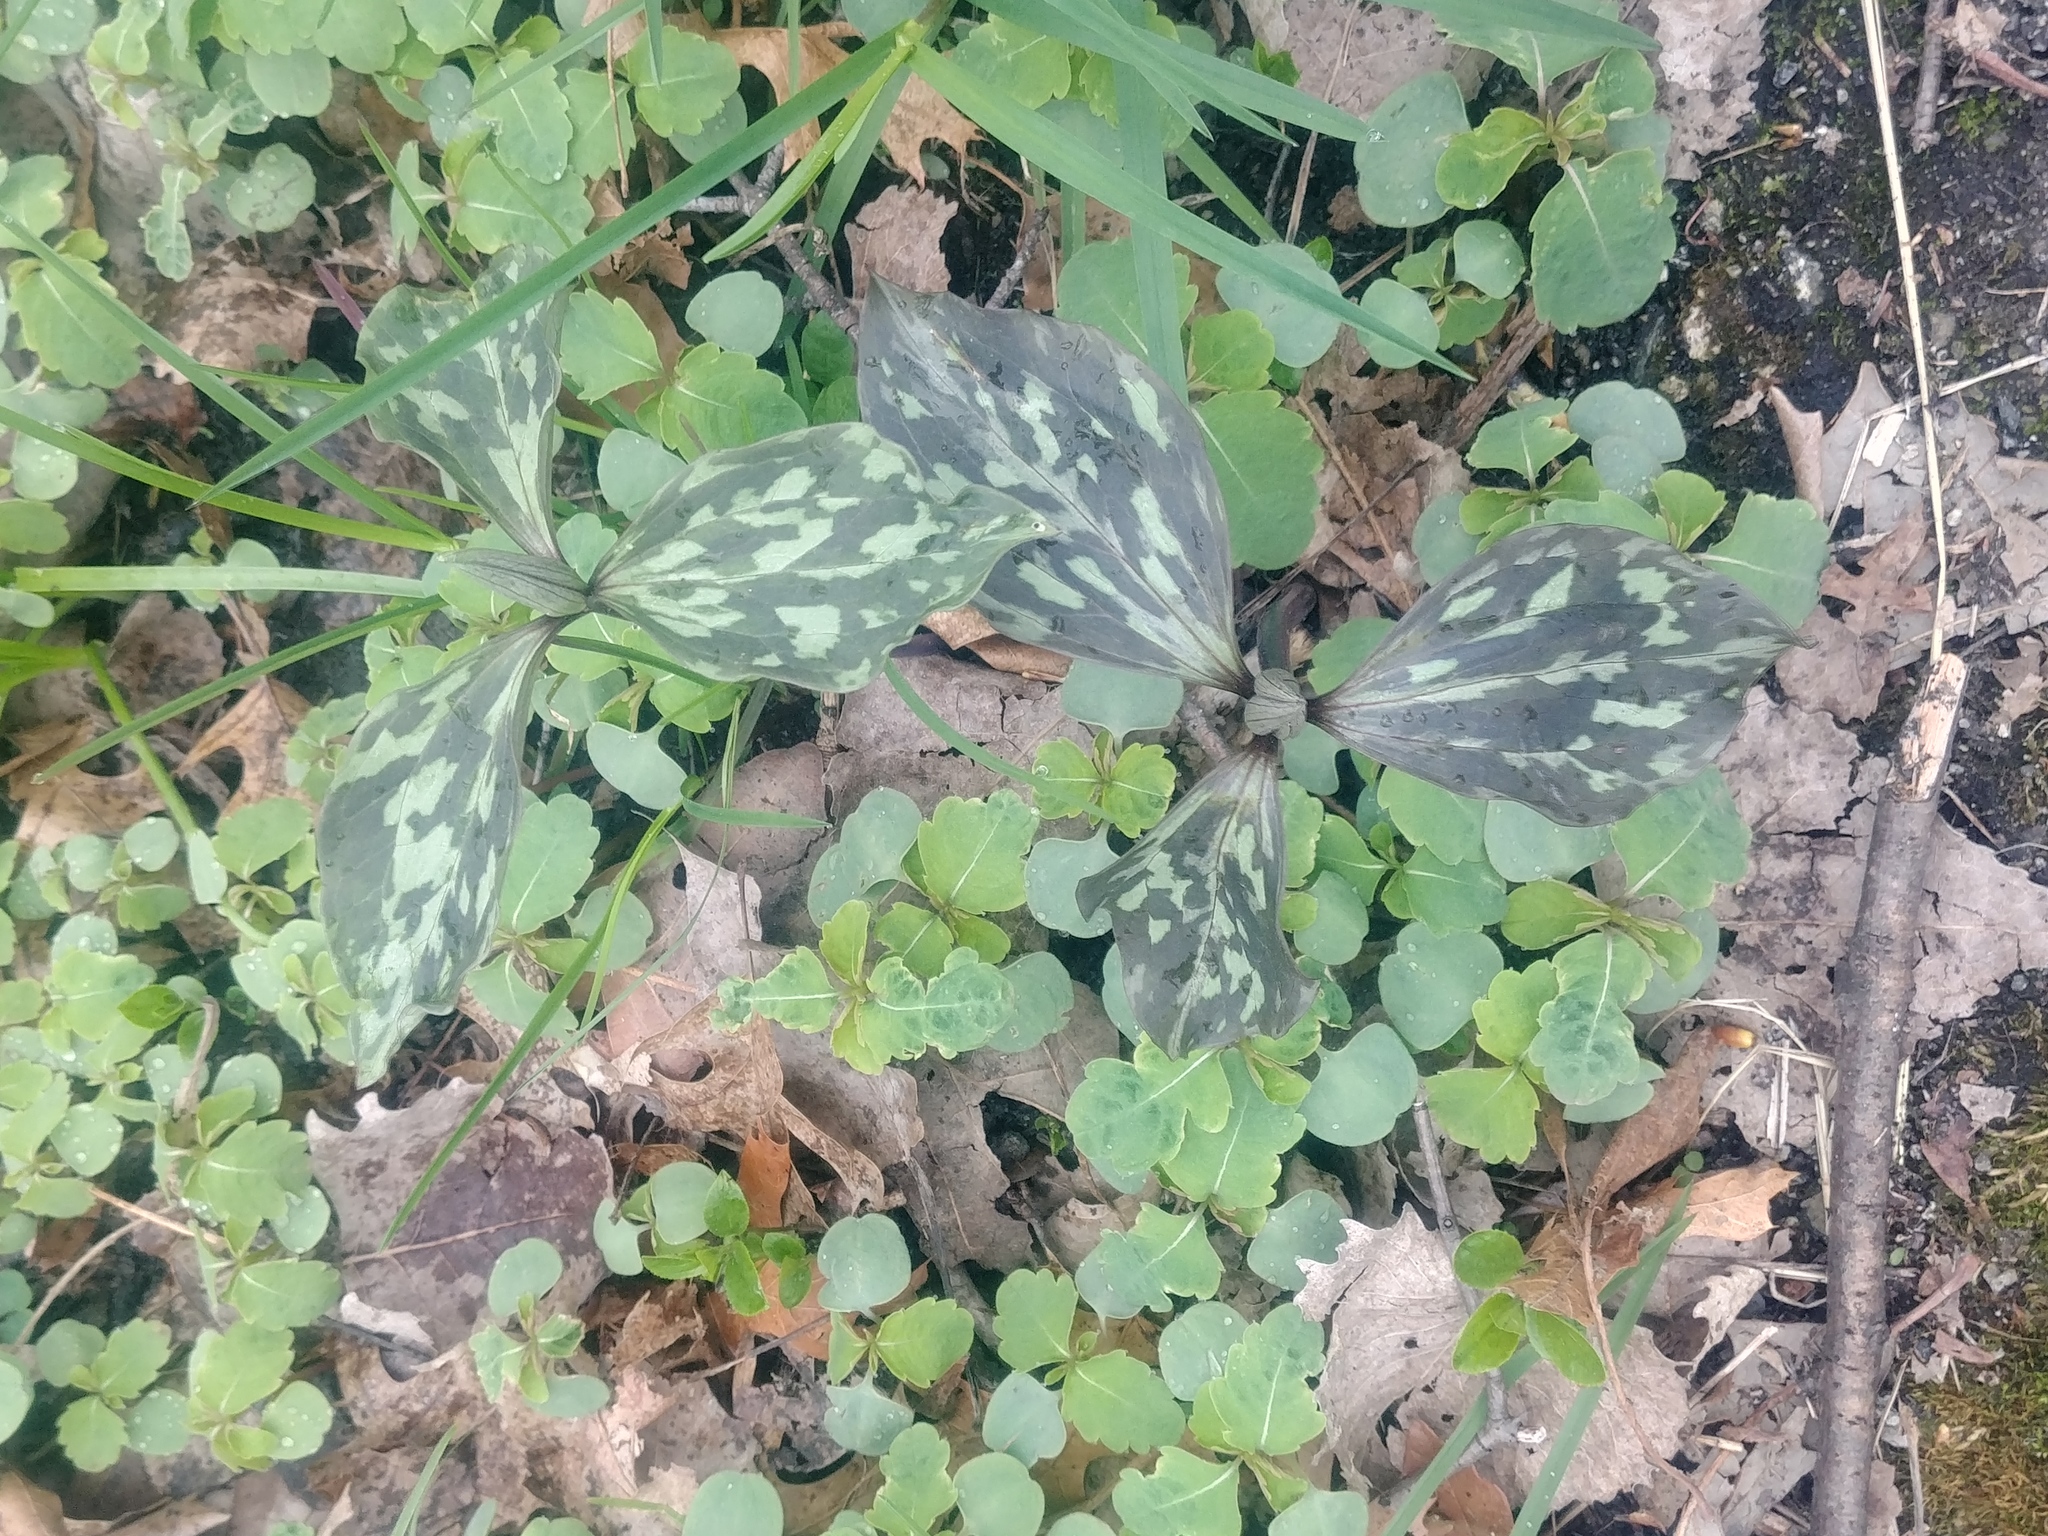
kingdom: Plantae
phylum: Tracheophyta
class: Liliopsida
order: Liliales
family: Melanthiaceae
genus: Trillium
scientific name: Trillium recurvatum
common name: Bloody butcher
